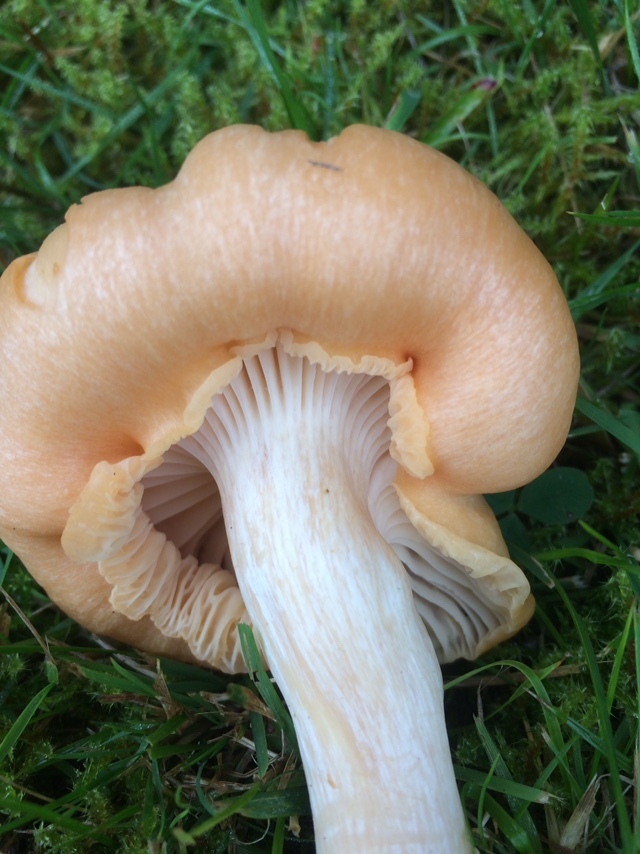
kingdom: Fungi
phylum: Basidiomycota
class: Agaricomycetes
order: Agaricales
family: Hygrophoraceae
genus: Cuphophyllus
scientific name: Cuphophyllus pratensis
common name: Meadow waxcap
